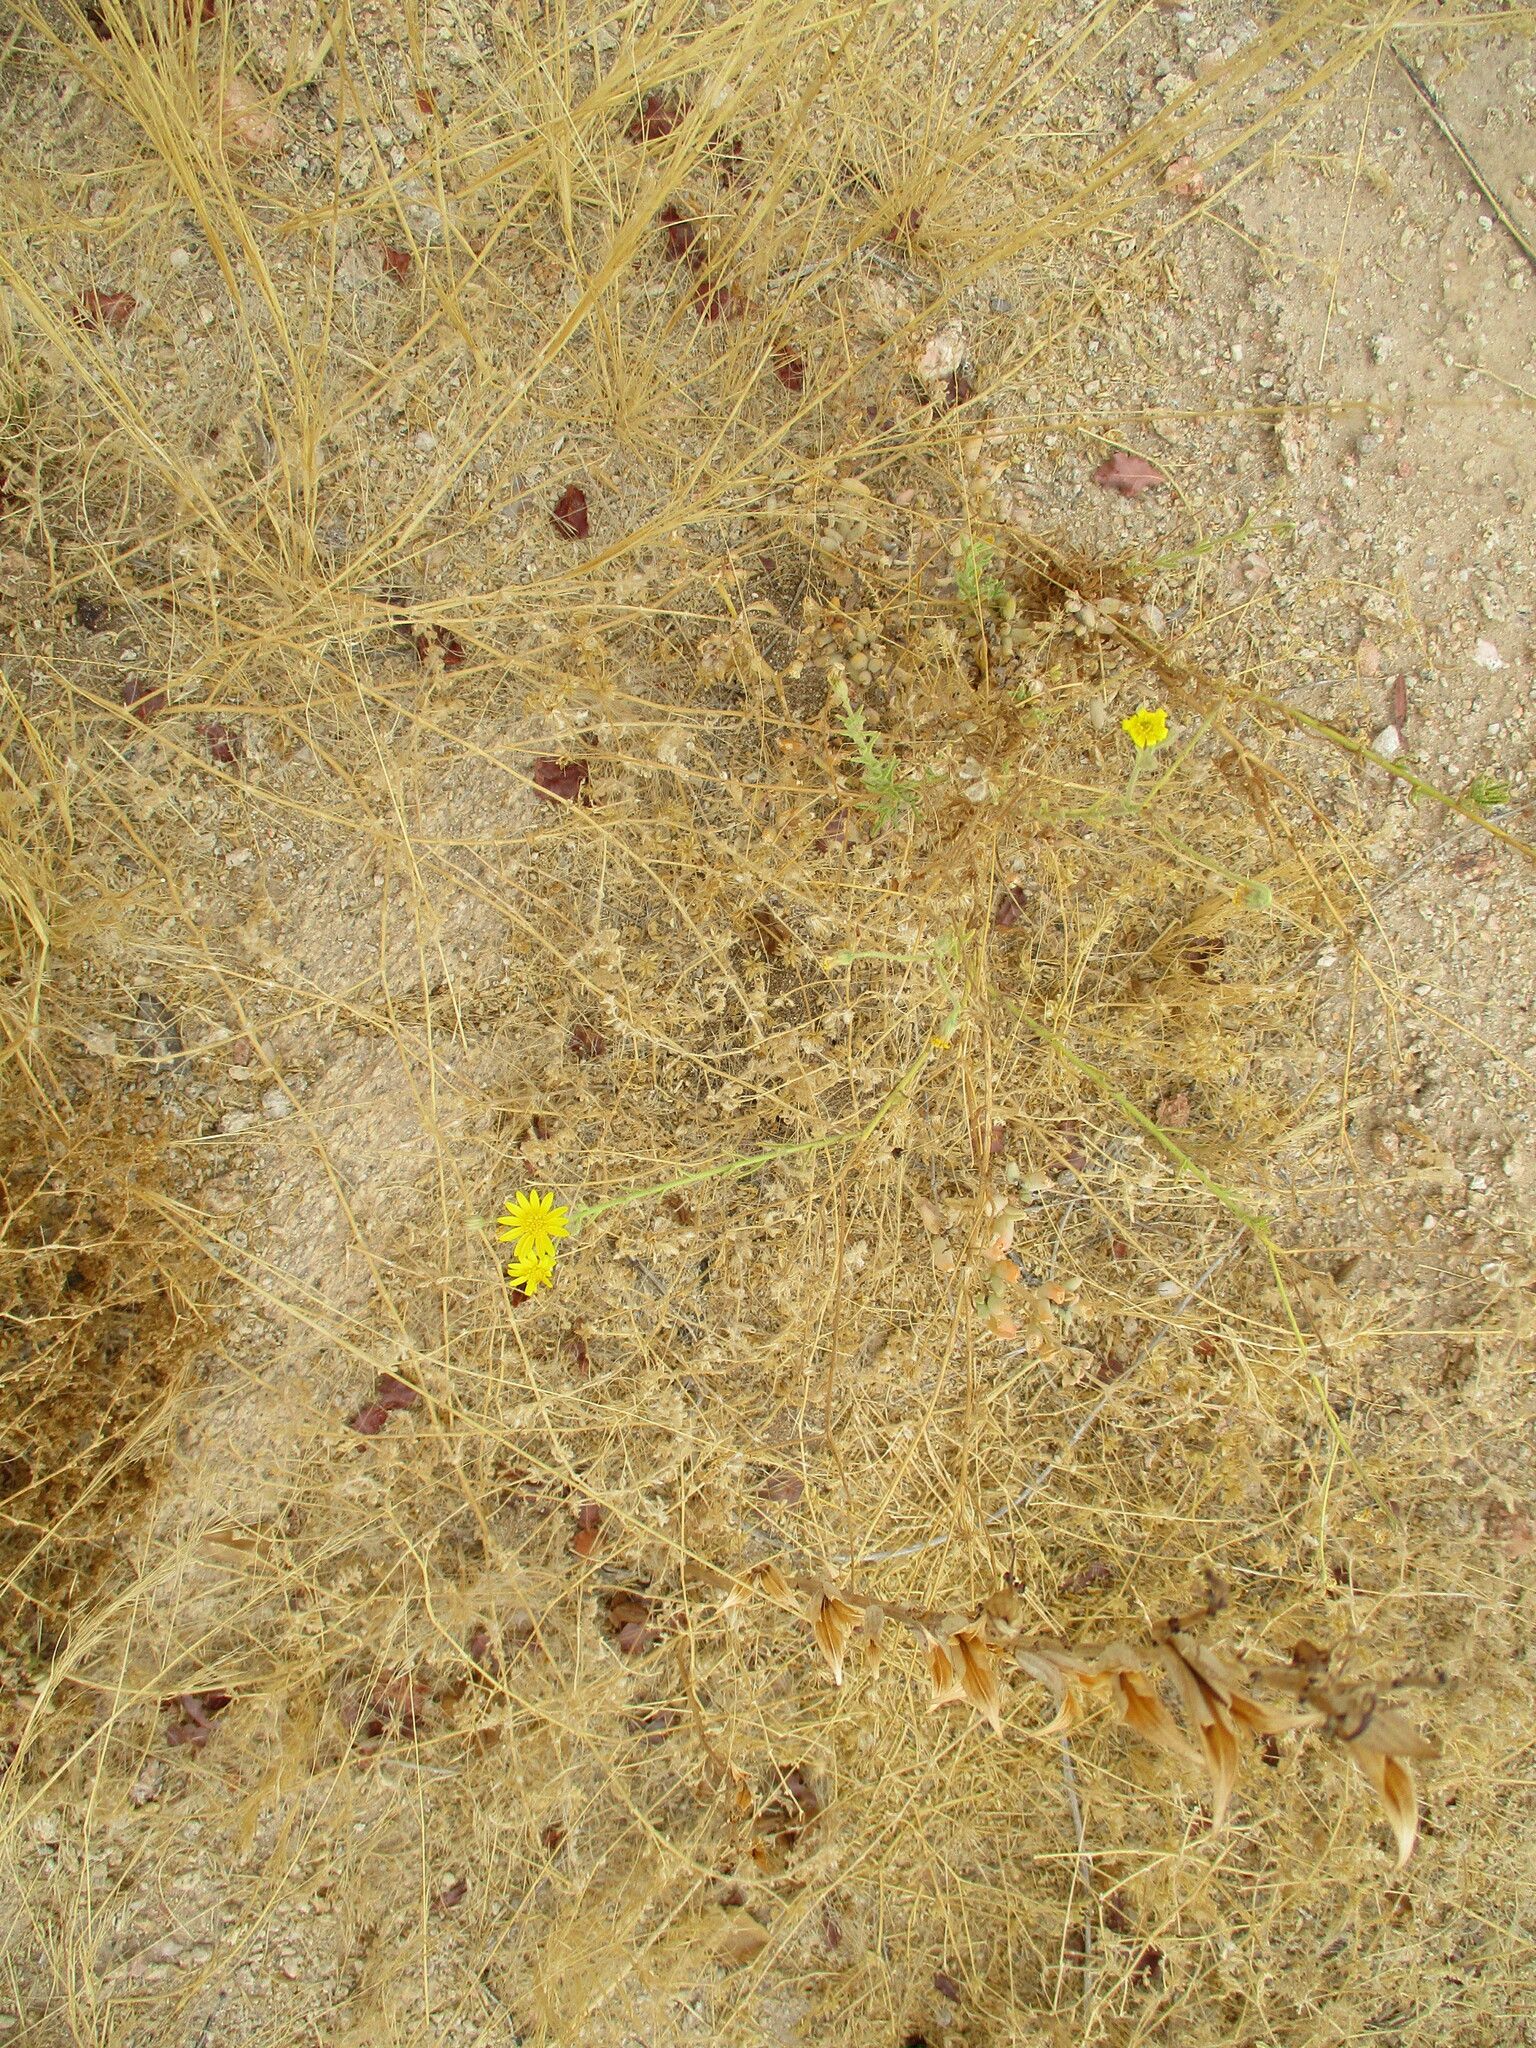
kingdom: Plantae
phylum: Tracheophyta
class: Magnoliopsida
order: Asterales
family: Asteraceae
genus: Osteospermum
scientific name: Osteospermum microcarpum
